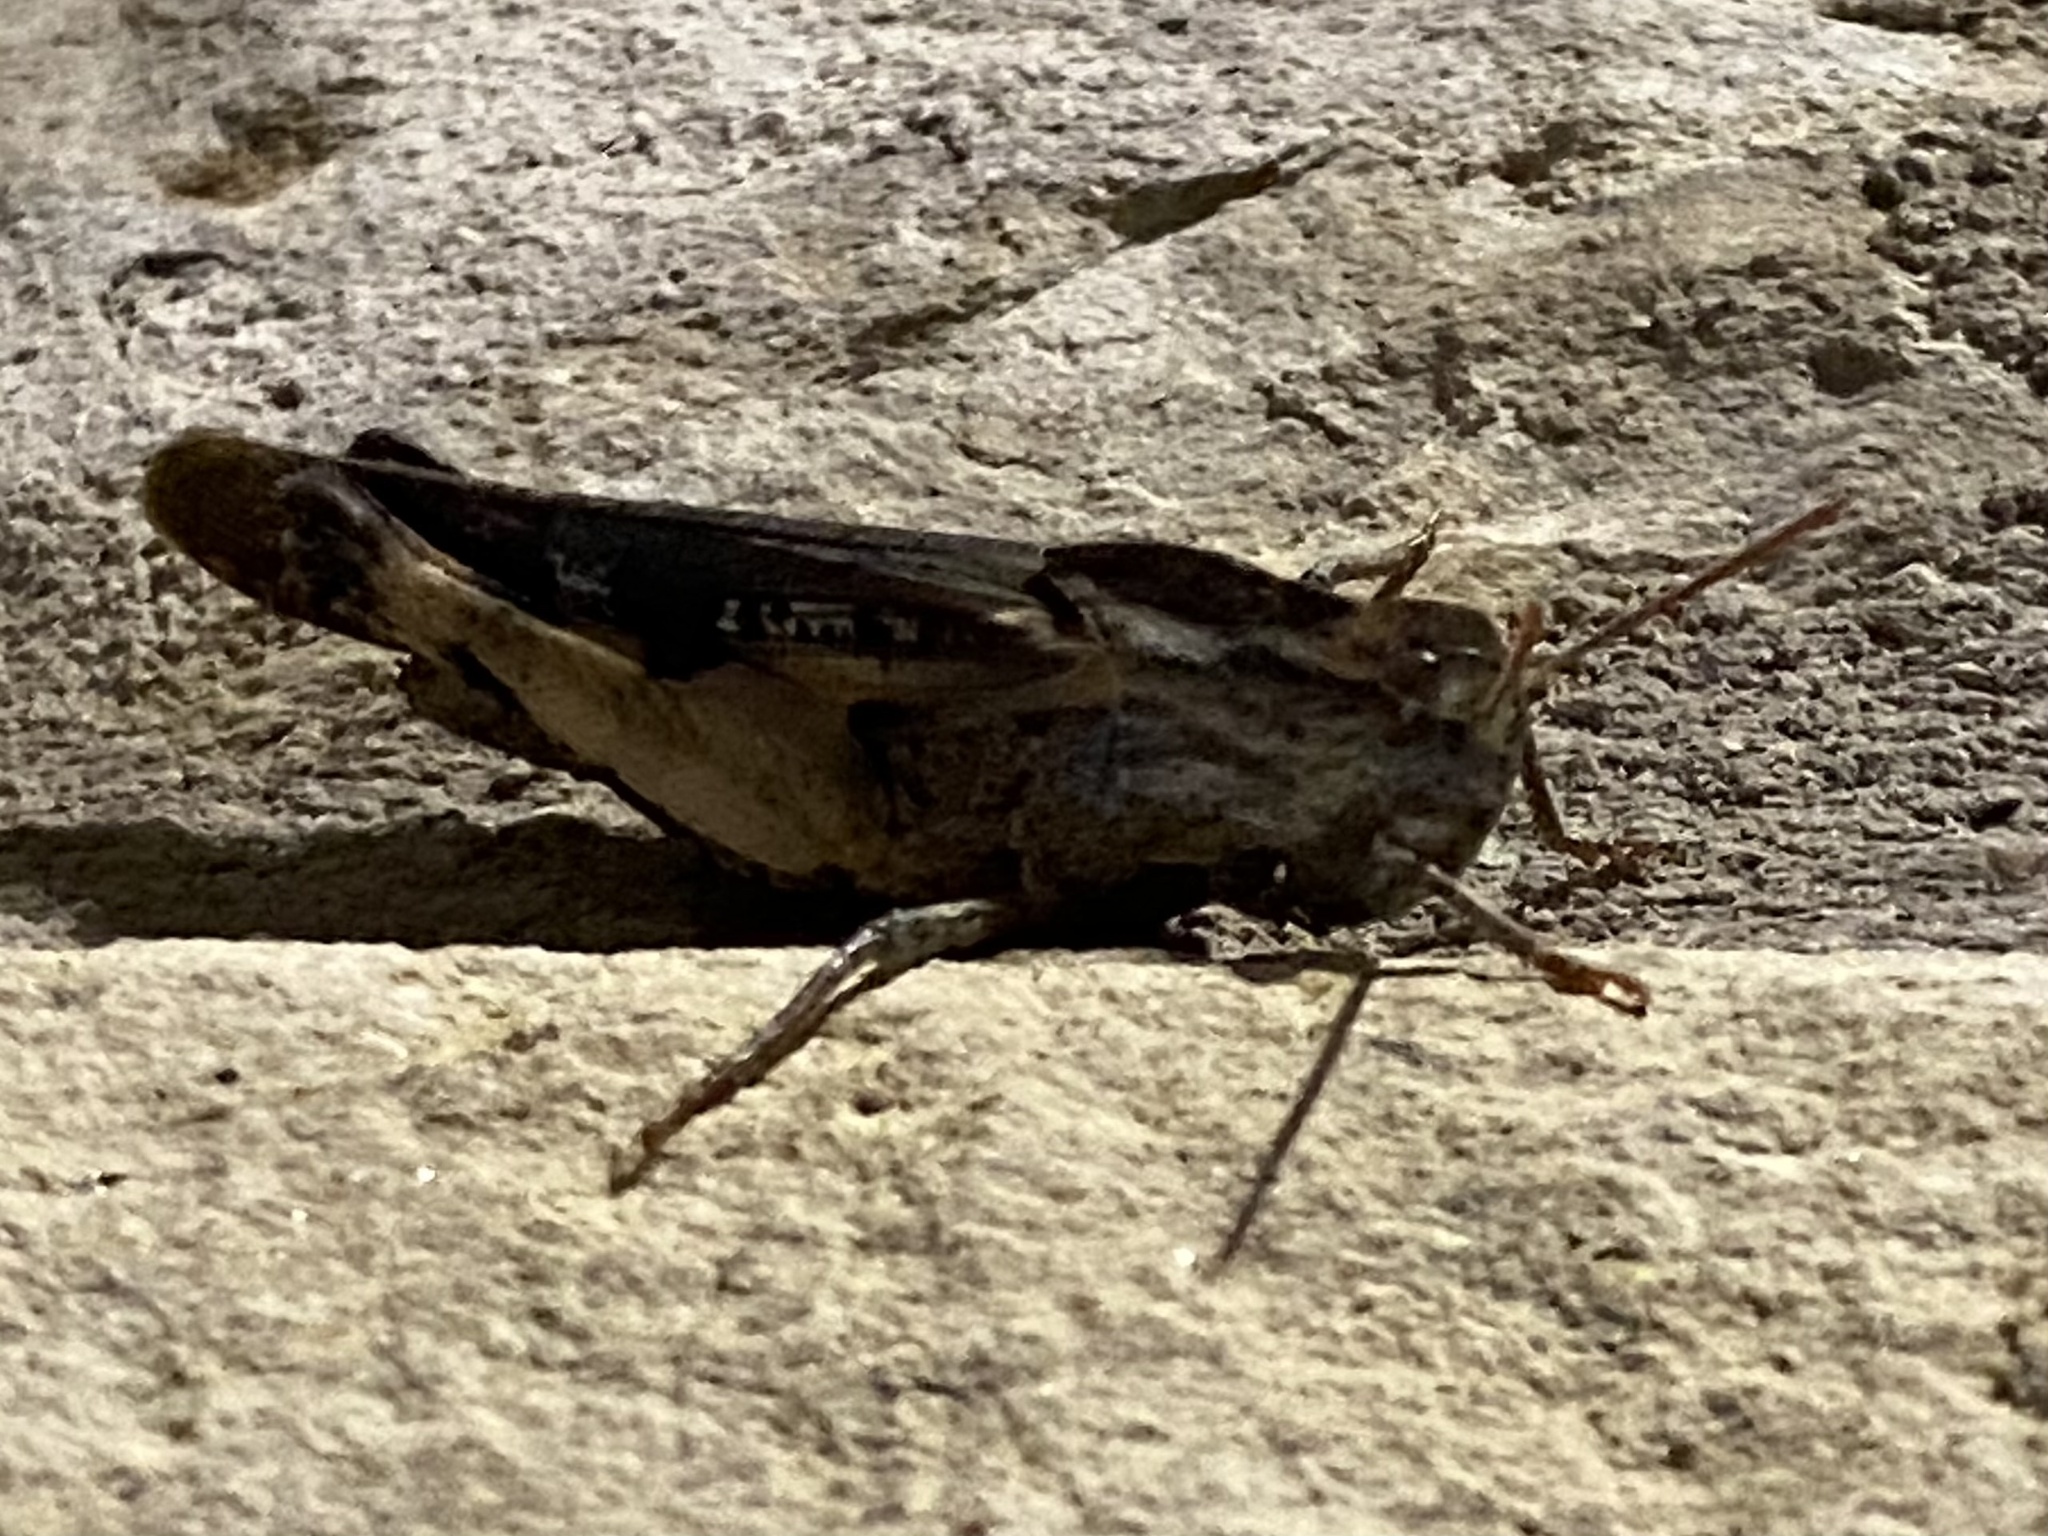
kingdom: Animalia
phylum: Arthropoda
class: Insecta
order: Orthoptera
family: Acrididae
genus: Chortophaga
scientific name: Chortophaga viridifasciata
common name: Green-striped grasshopper
